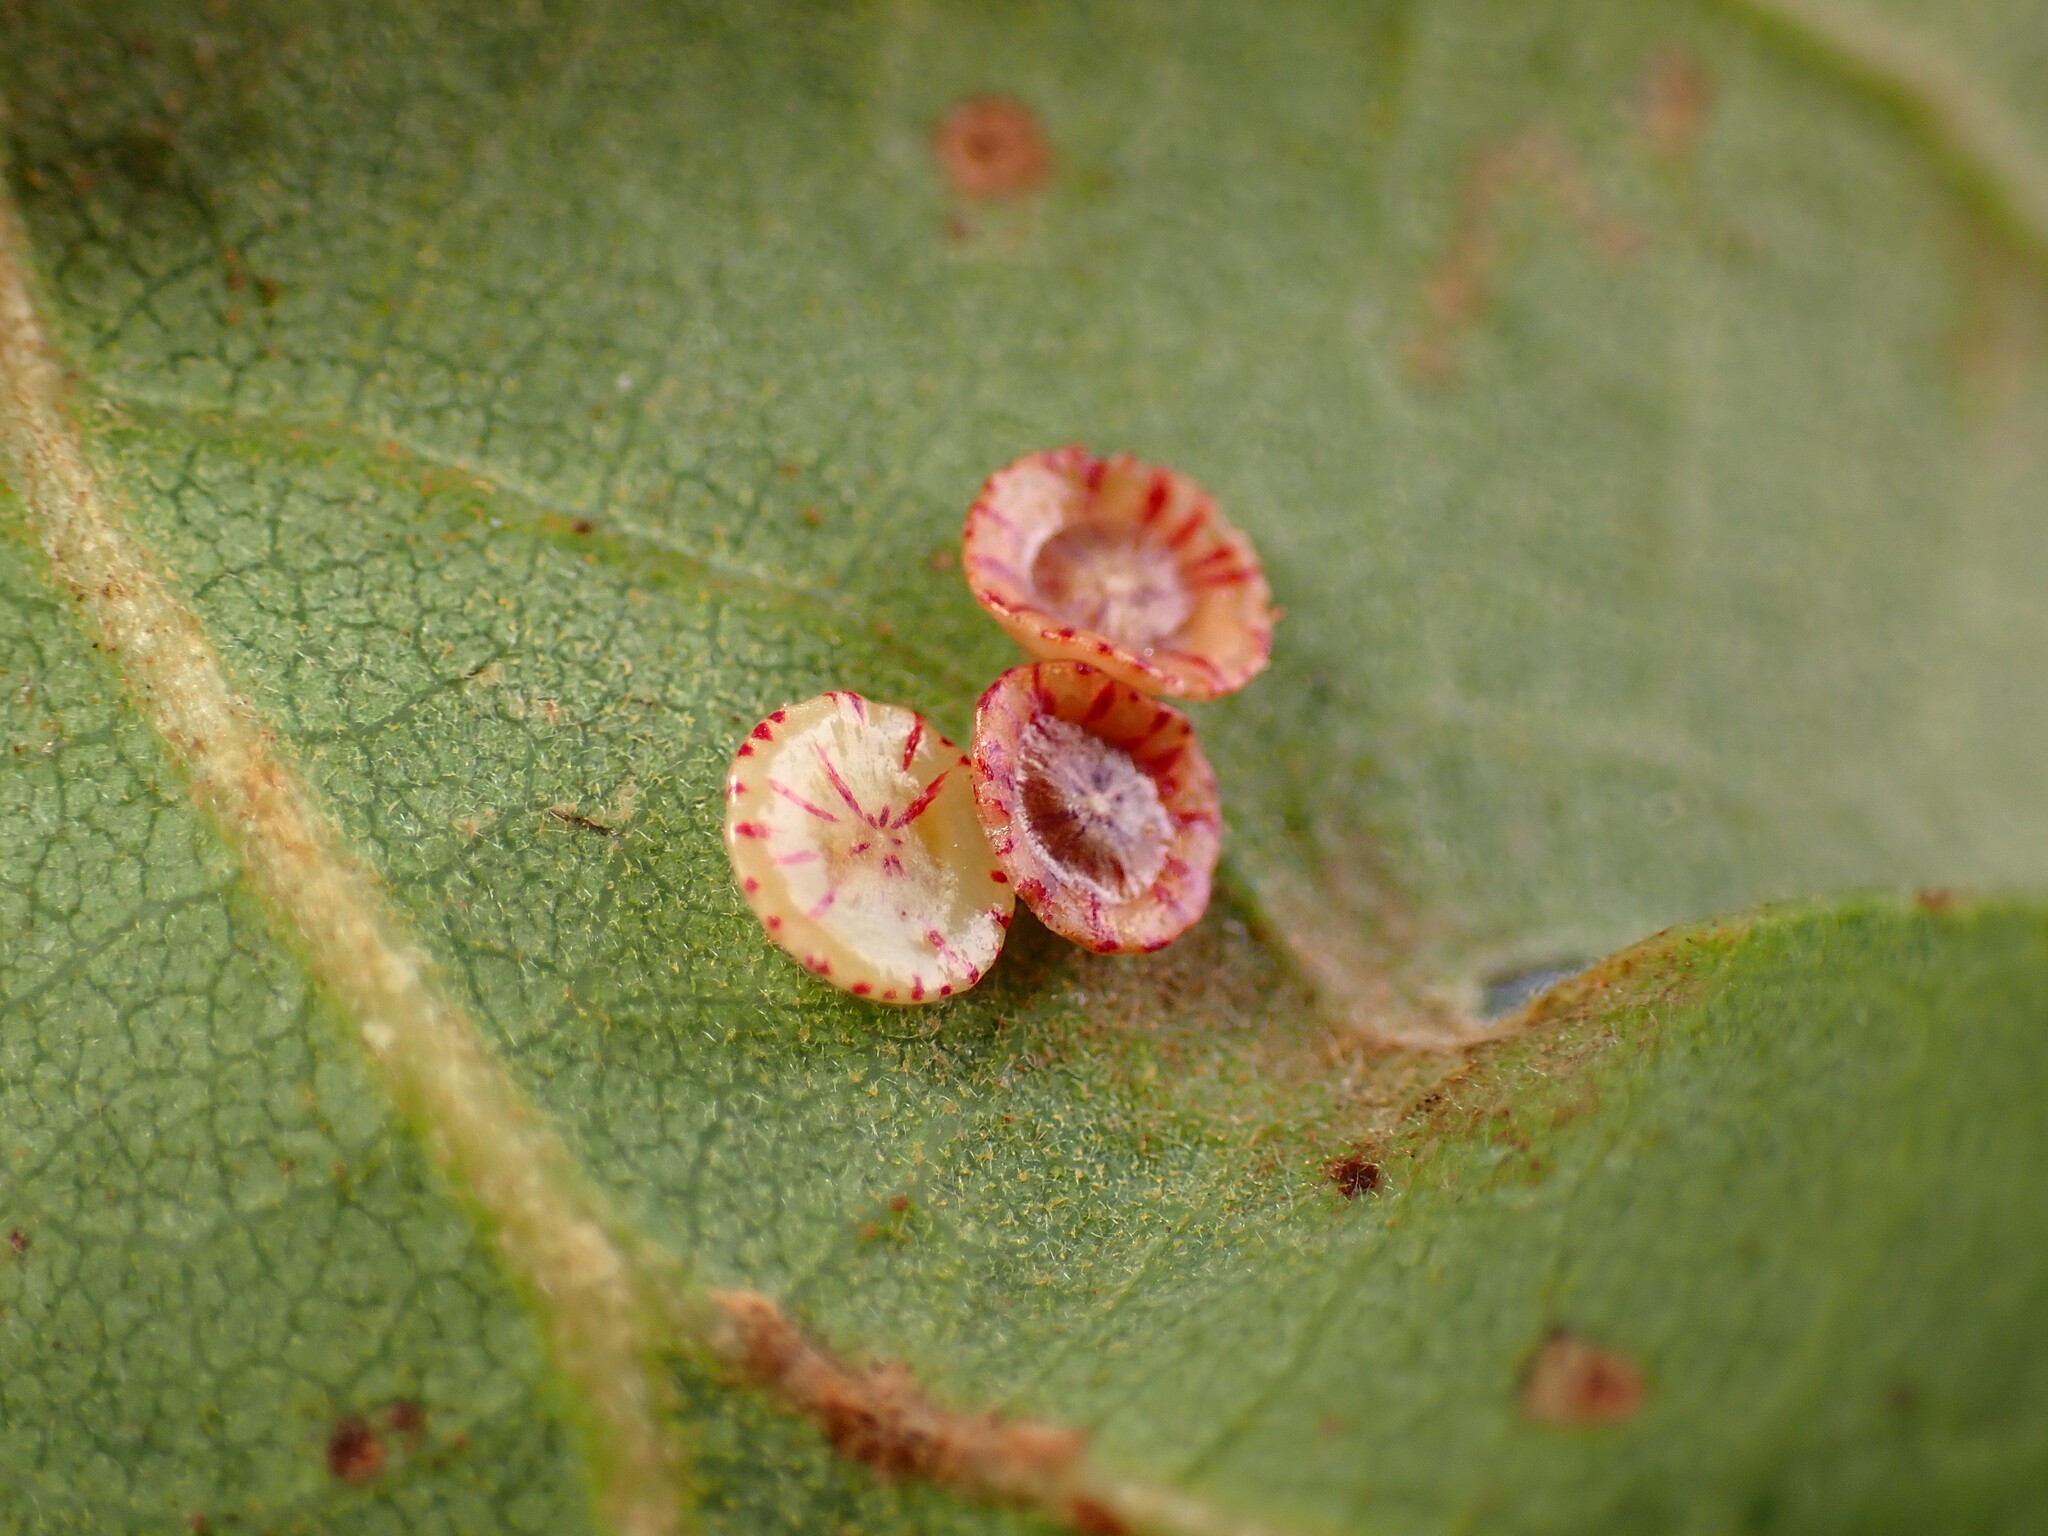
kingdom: Animalia
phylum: Arthropoda
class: Insecta
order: Hymenoptera
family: Cynipidae
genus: Andricus
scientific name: Andricus
